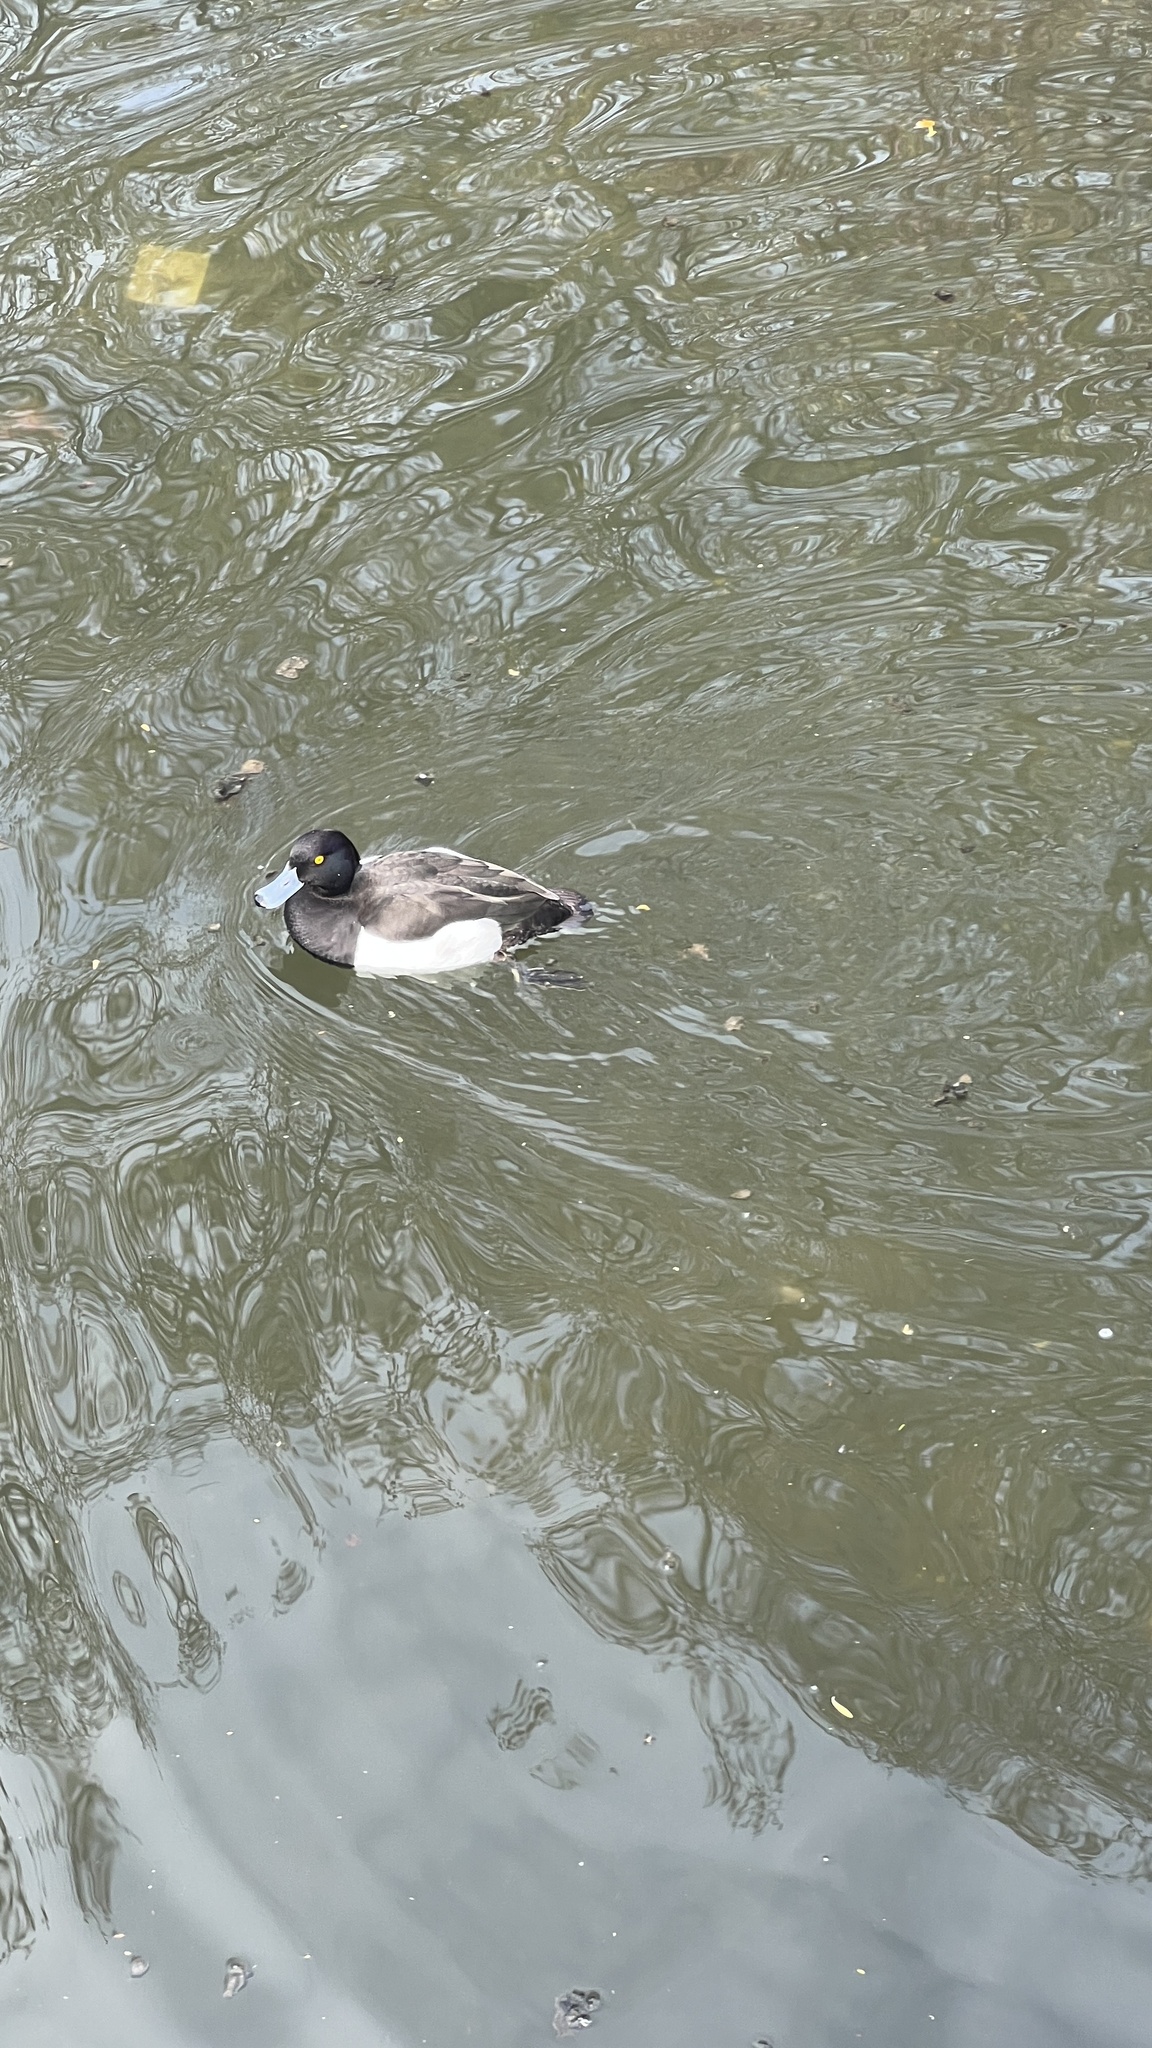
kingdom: Animalia
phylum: Chordata
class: Aves
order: Anseriformes
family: Anatidae
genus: Aythya
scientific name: Aythya fuligula
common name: Tufted duck
